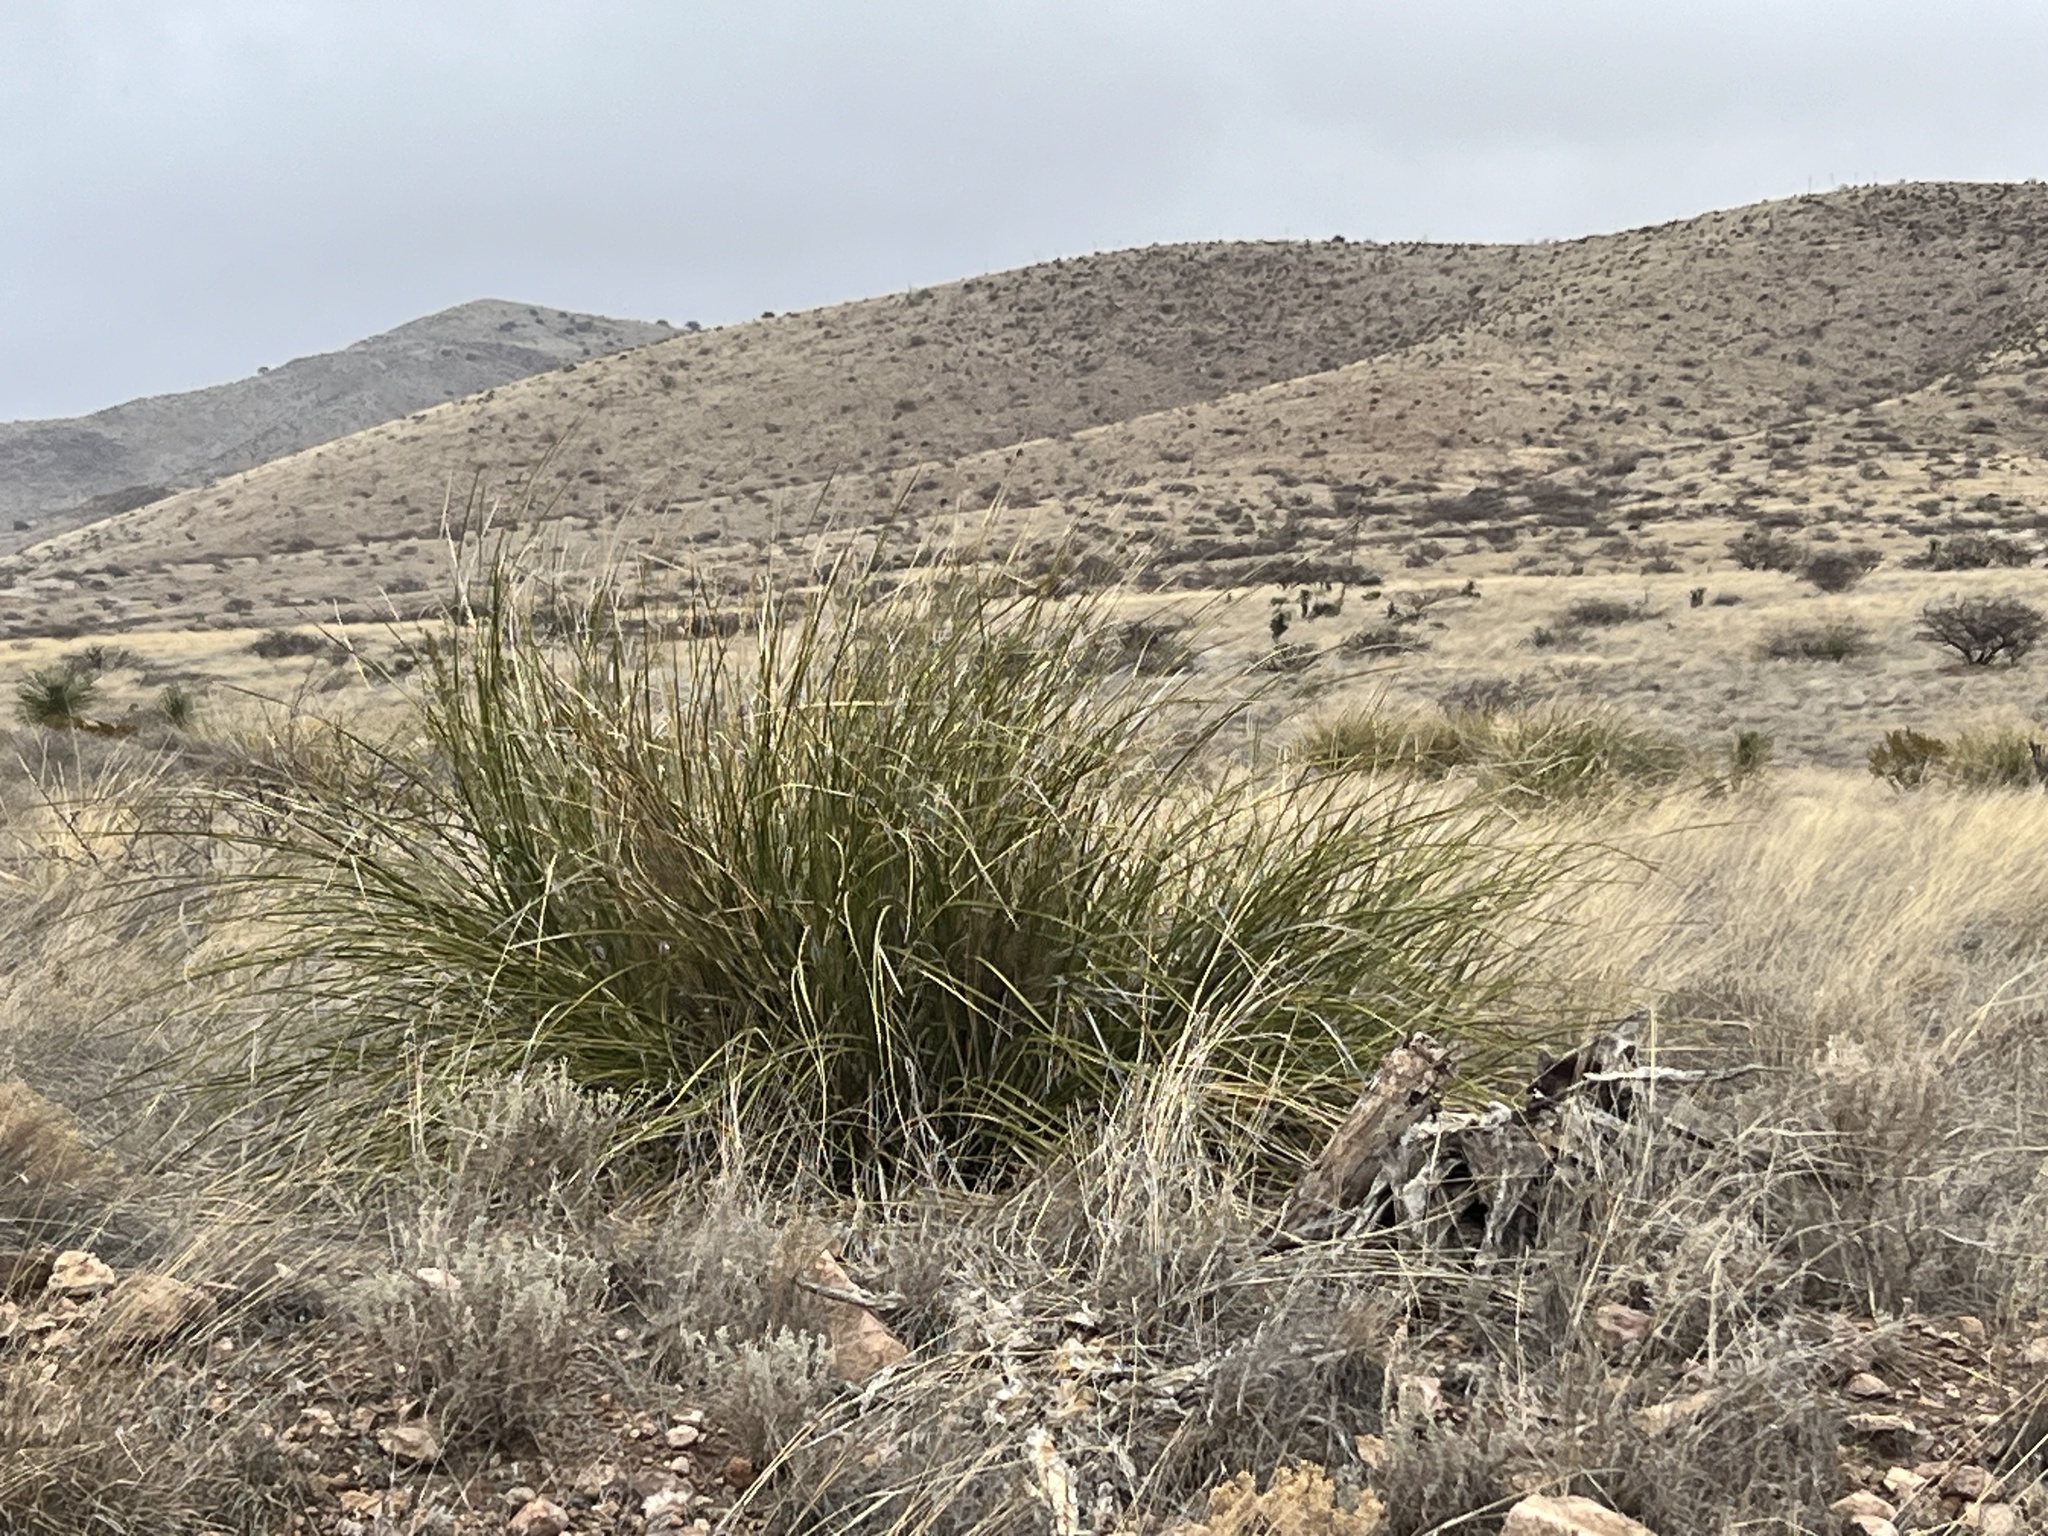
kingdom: Plantae
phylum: Tracheophyta
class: Liliopsida
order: Asparagales
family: Asparagaceae
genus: Nolina
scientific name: Nolina microcarpa
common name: Bear-grass
